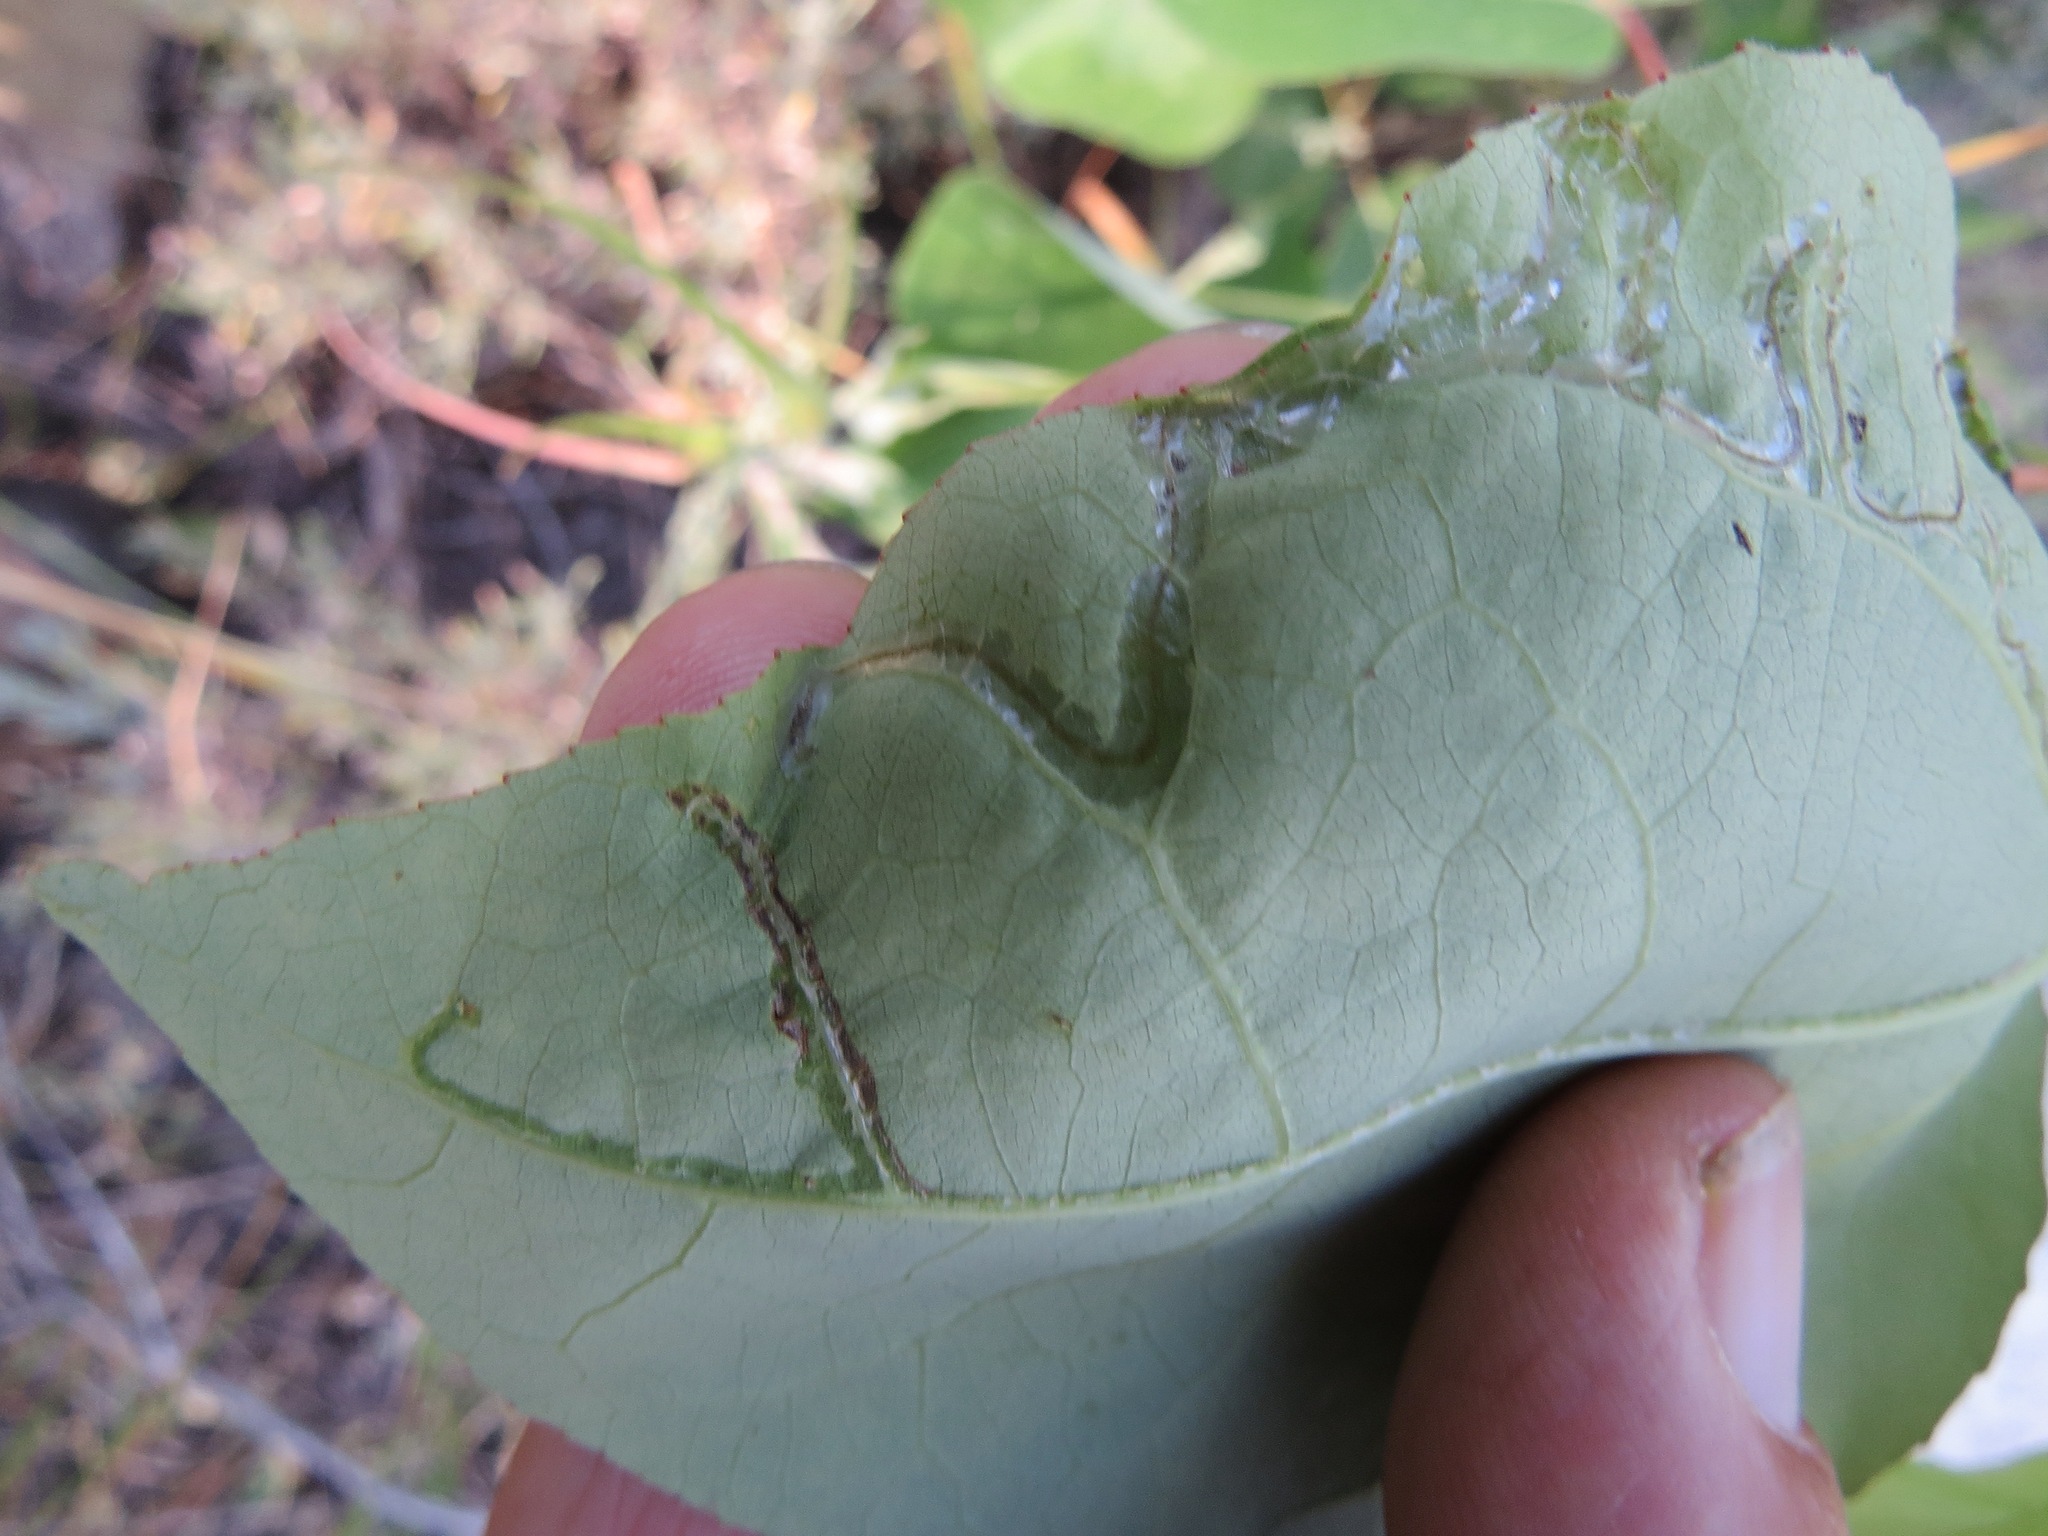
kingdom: Animalia
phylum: Arthropoda
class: Insecta
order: Lepidoptera
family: Gracillariidae
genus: Phyllocnistis
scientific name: Phyllocnistis populiella
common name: Aspen serpentine leafminer moth
